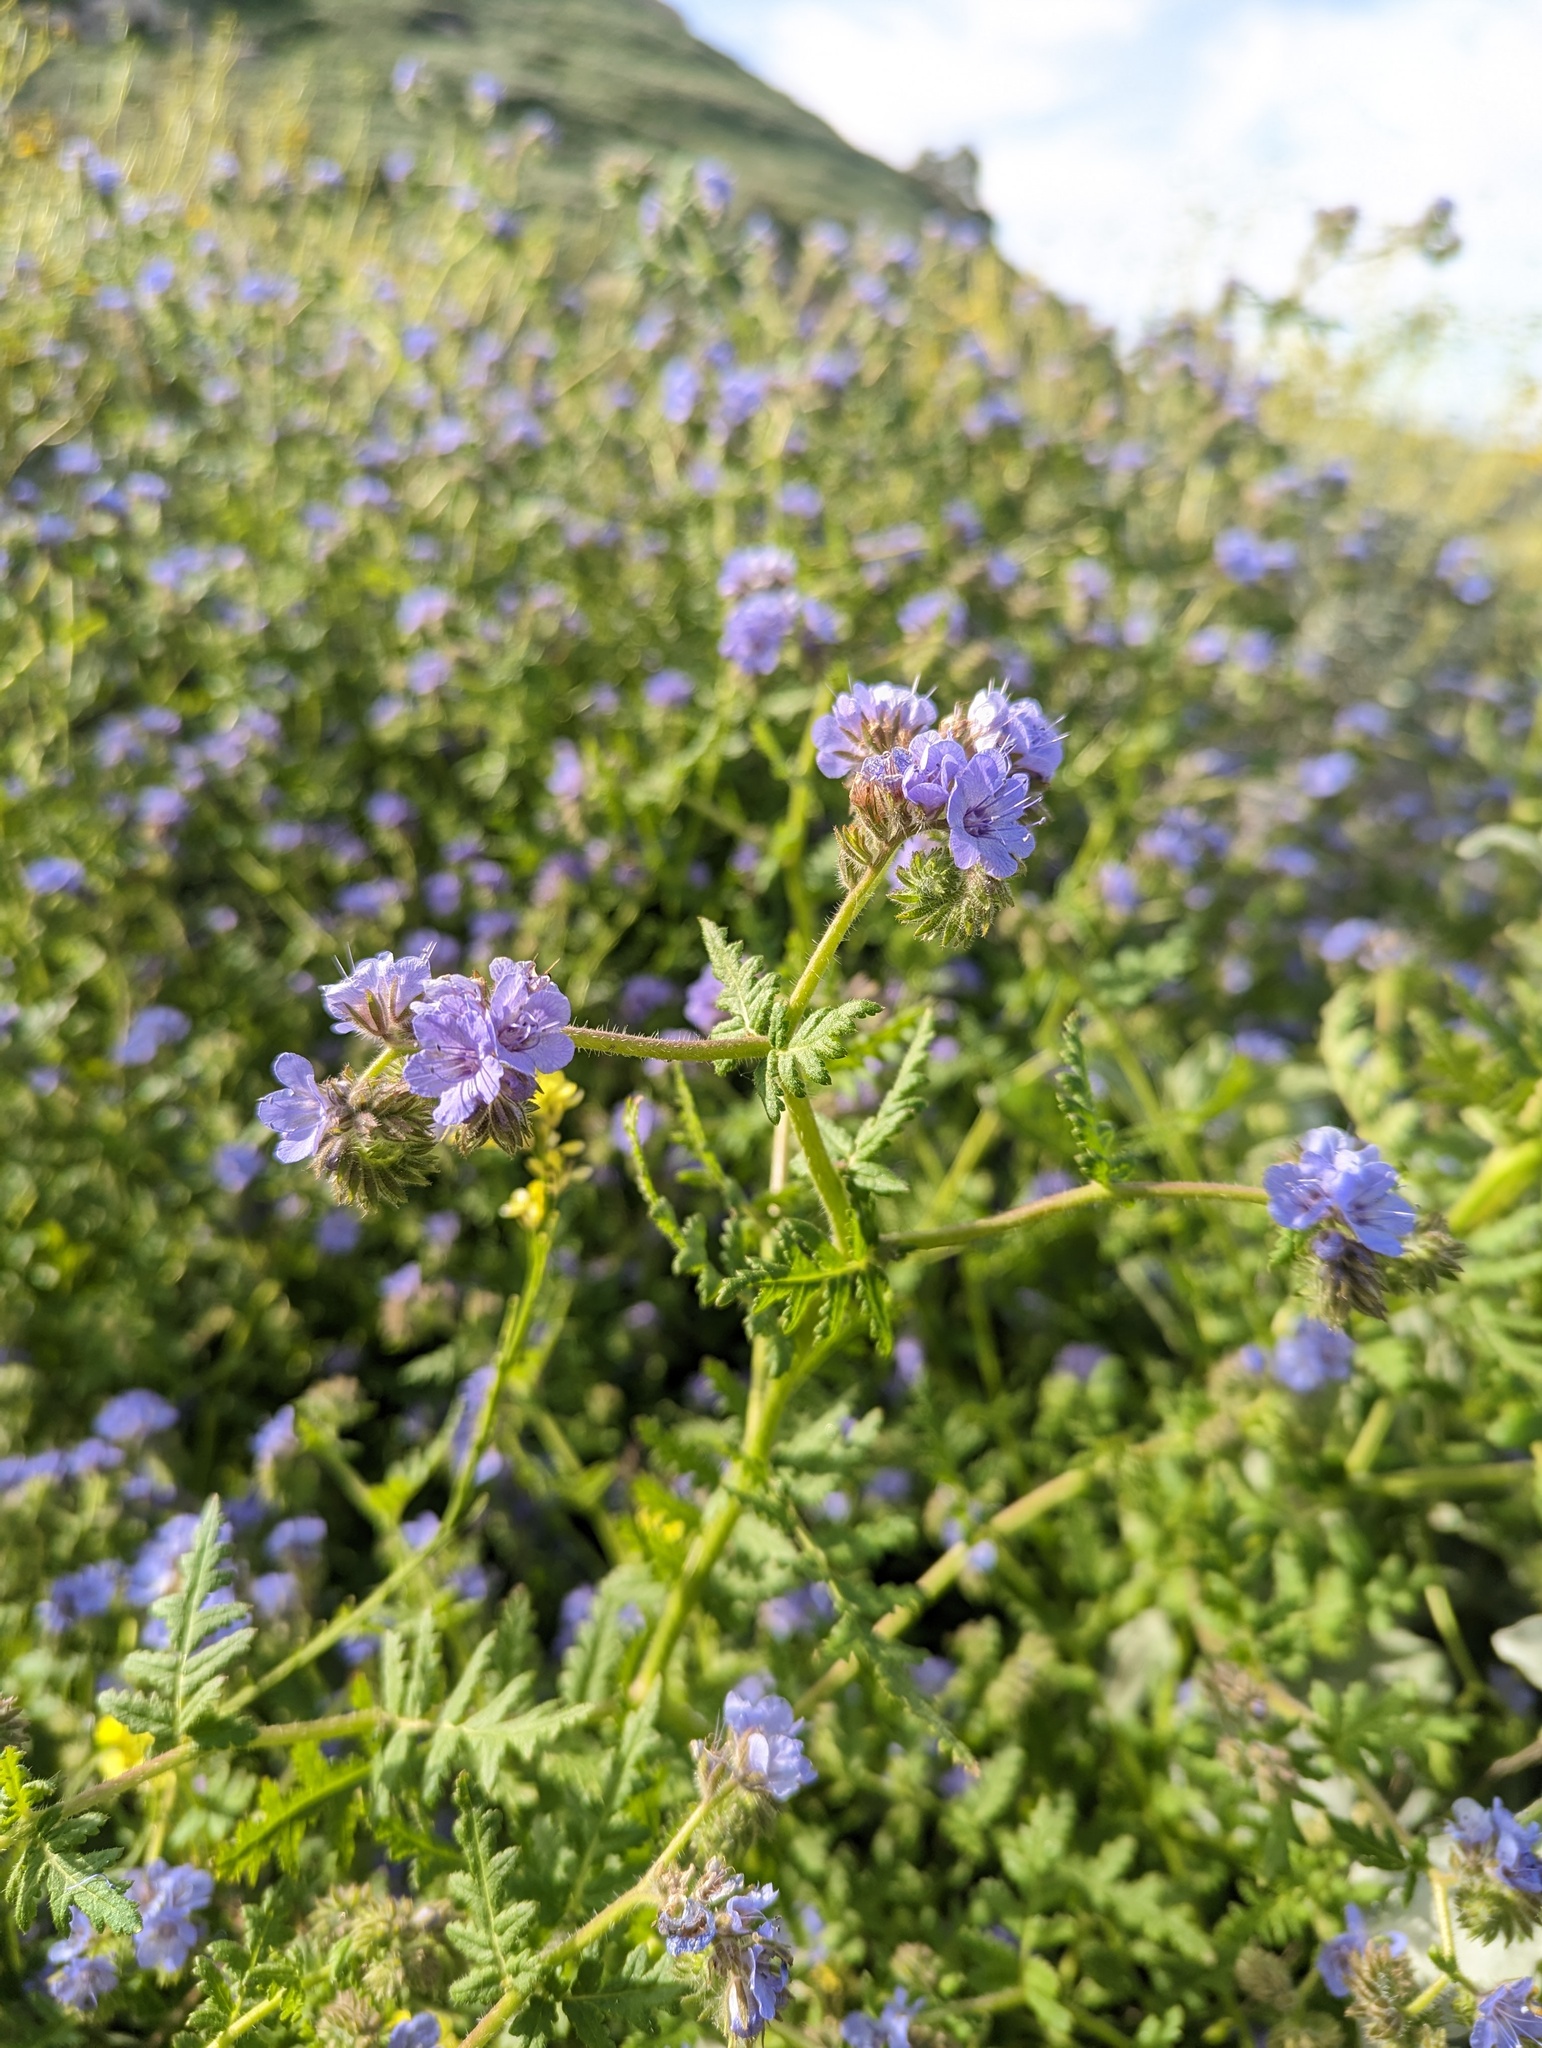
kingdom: Plantae
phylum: Tracheophyta
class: Magnoliopsida
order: Boraginales
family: Hydrophyllaceae
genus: Phacelia
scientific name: Phacelia distans
